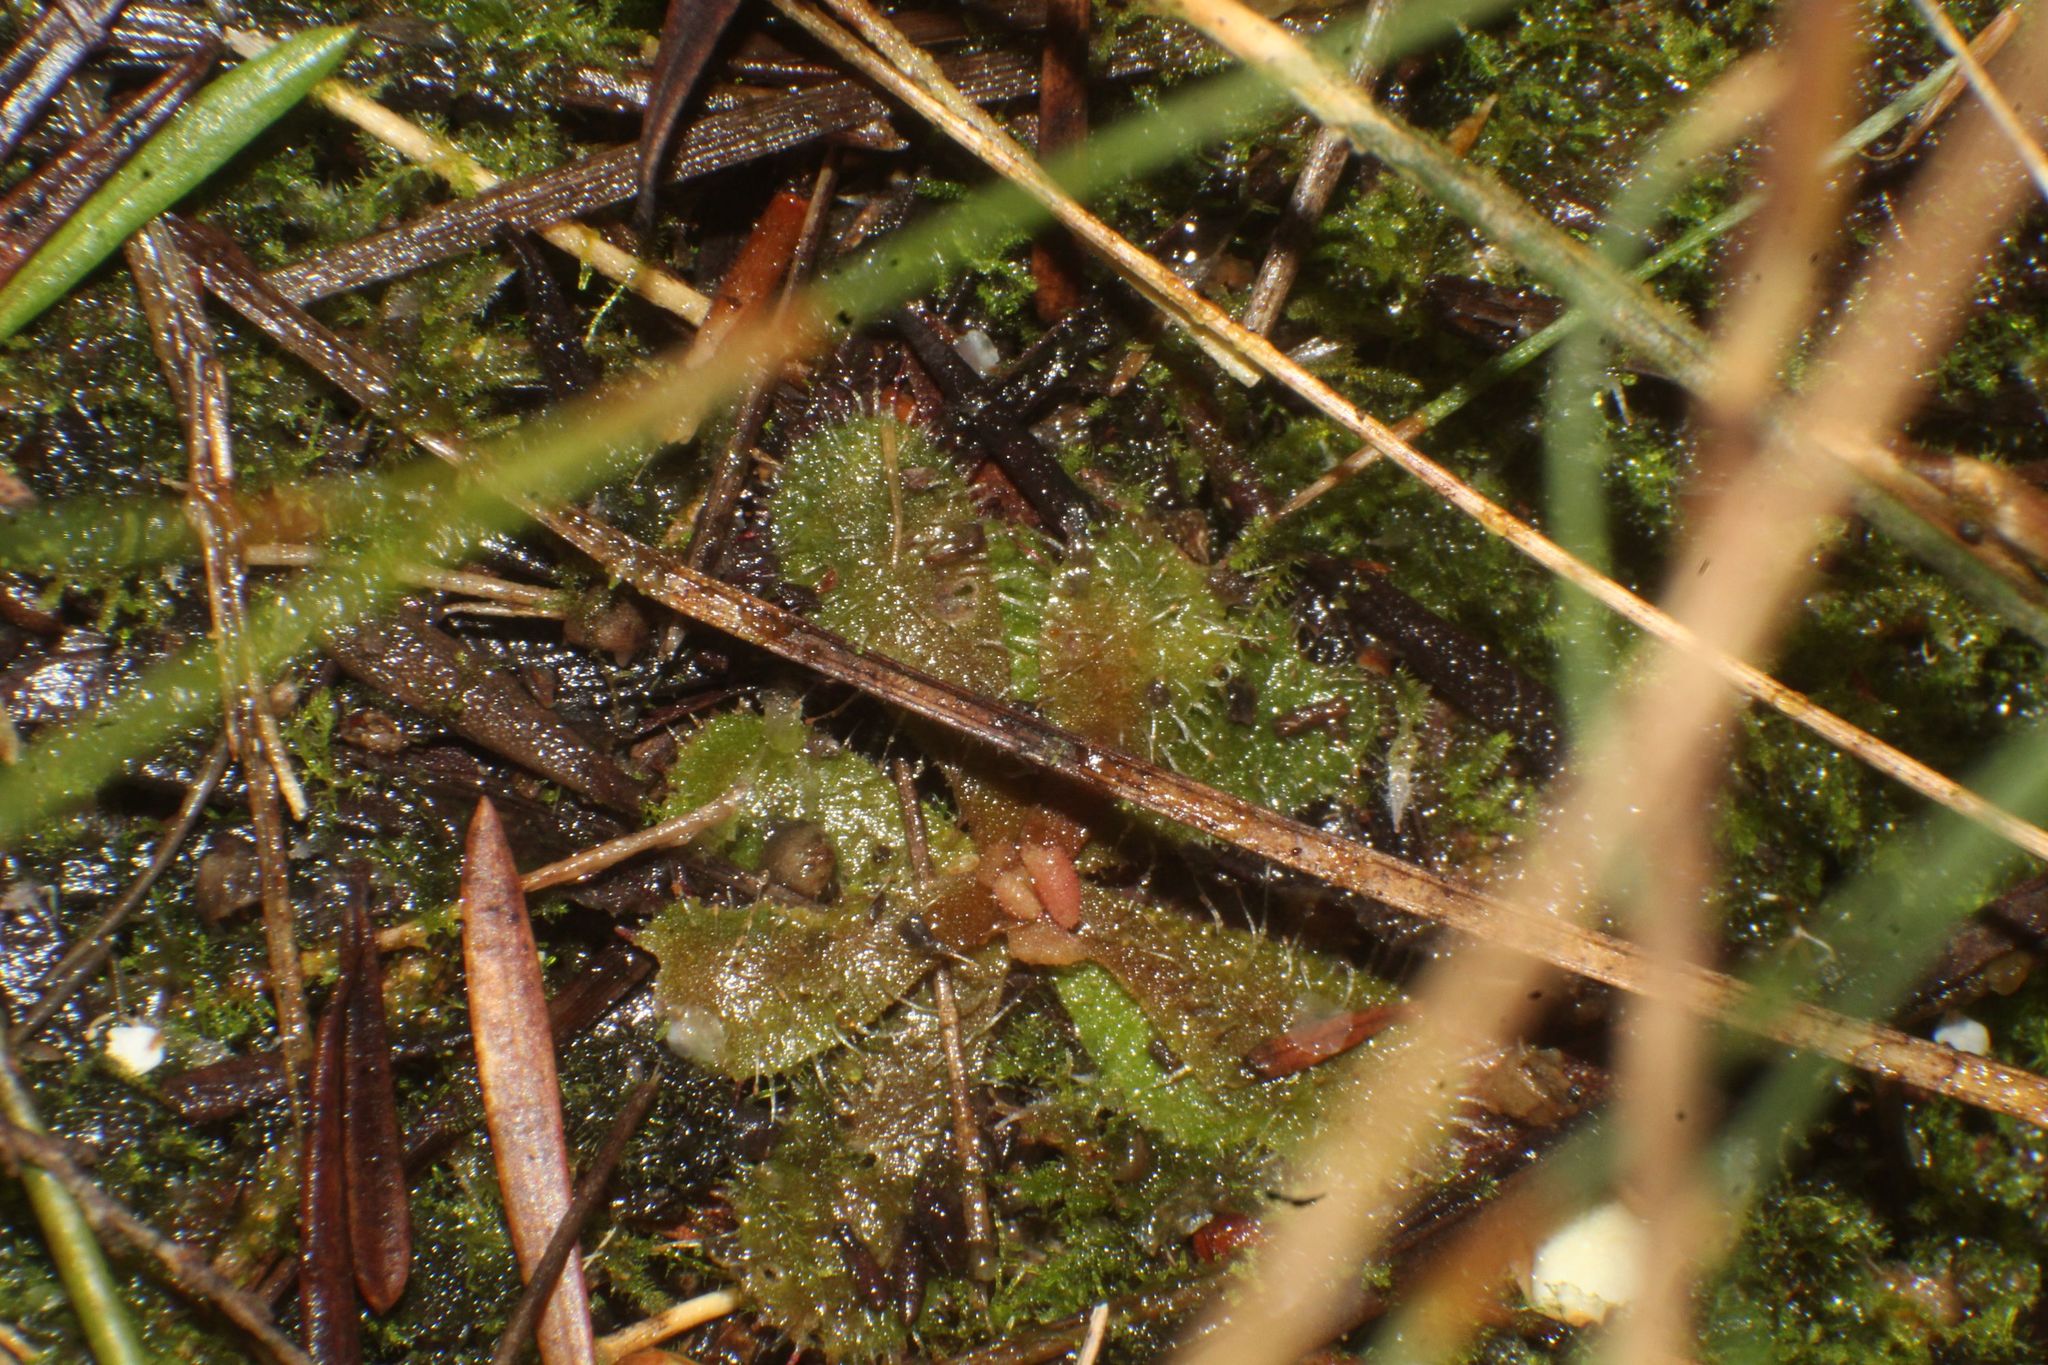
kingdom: Plantae
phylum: Tracheophyta
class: Magnoliopsida
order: Caryophyllales
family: Droseraceae
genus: Drosera
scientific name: Drosera hamiltonii
